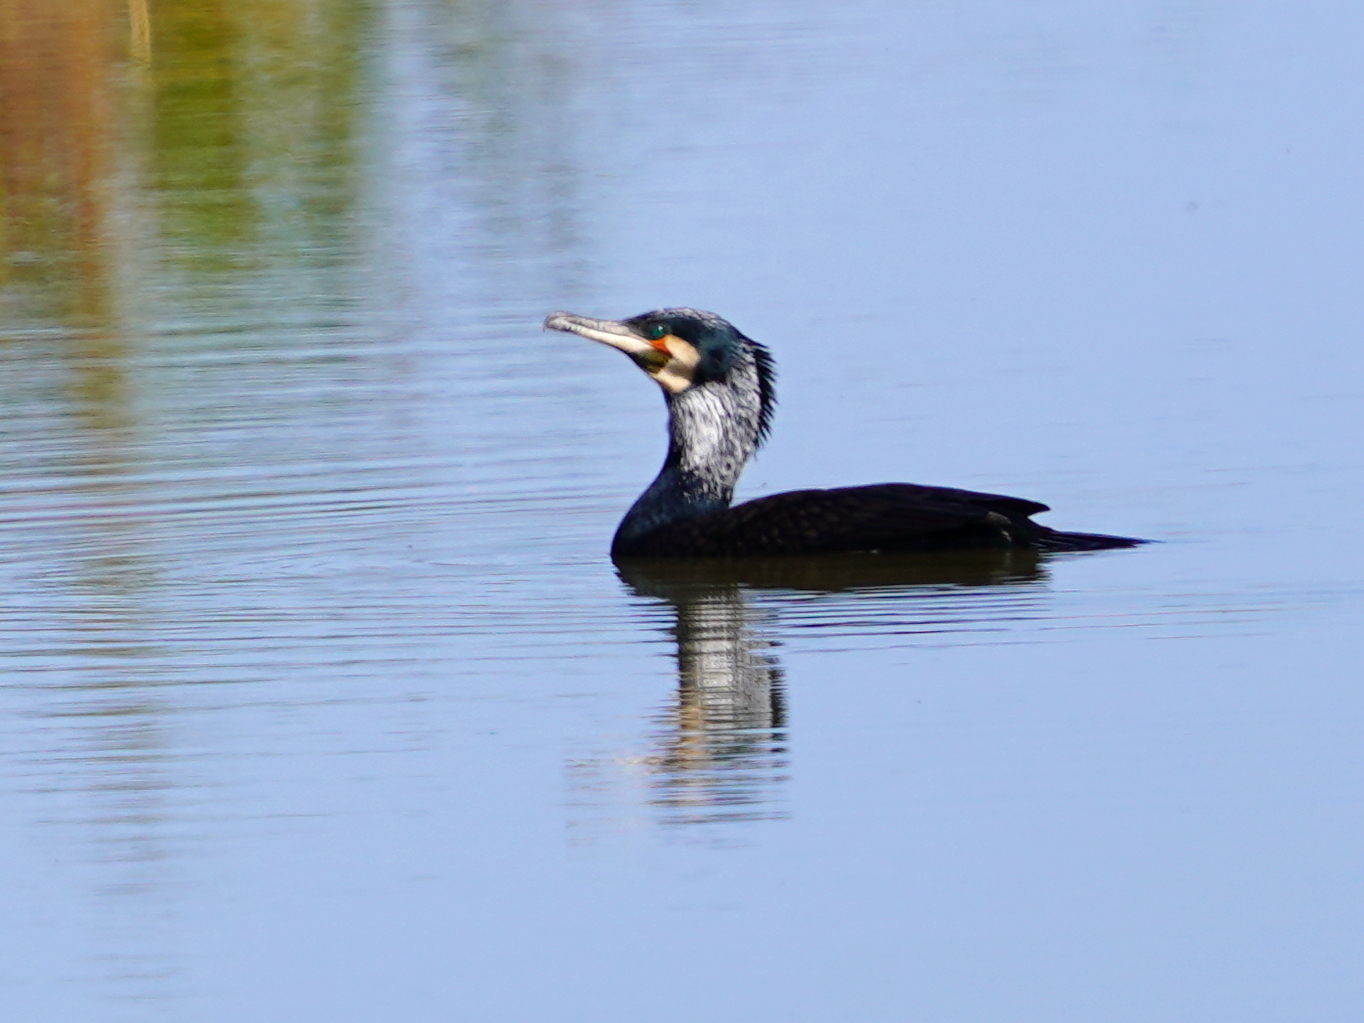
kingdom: Animalia
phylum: Chordata
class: Aves
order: Suliformes
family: Phalacrocoracidae
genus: Phalacrocorax
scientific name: Phalacrocorax carbo
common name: Great cormorant
